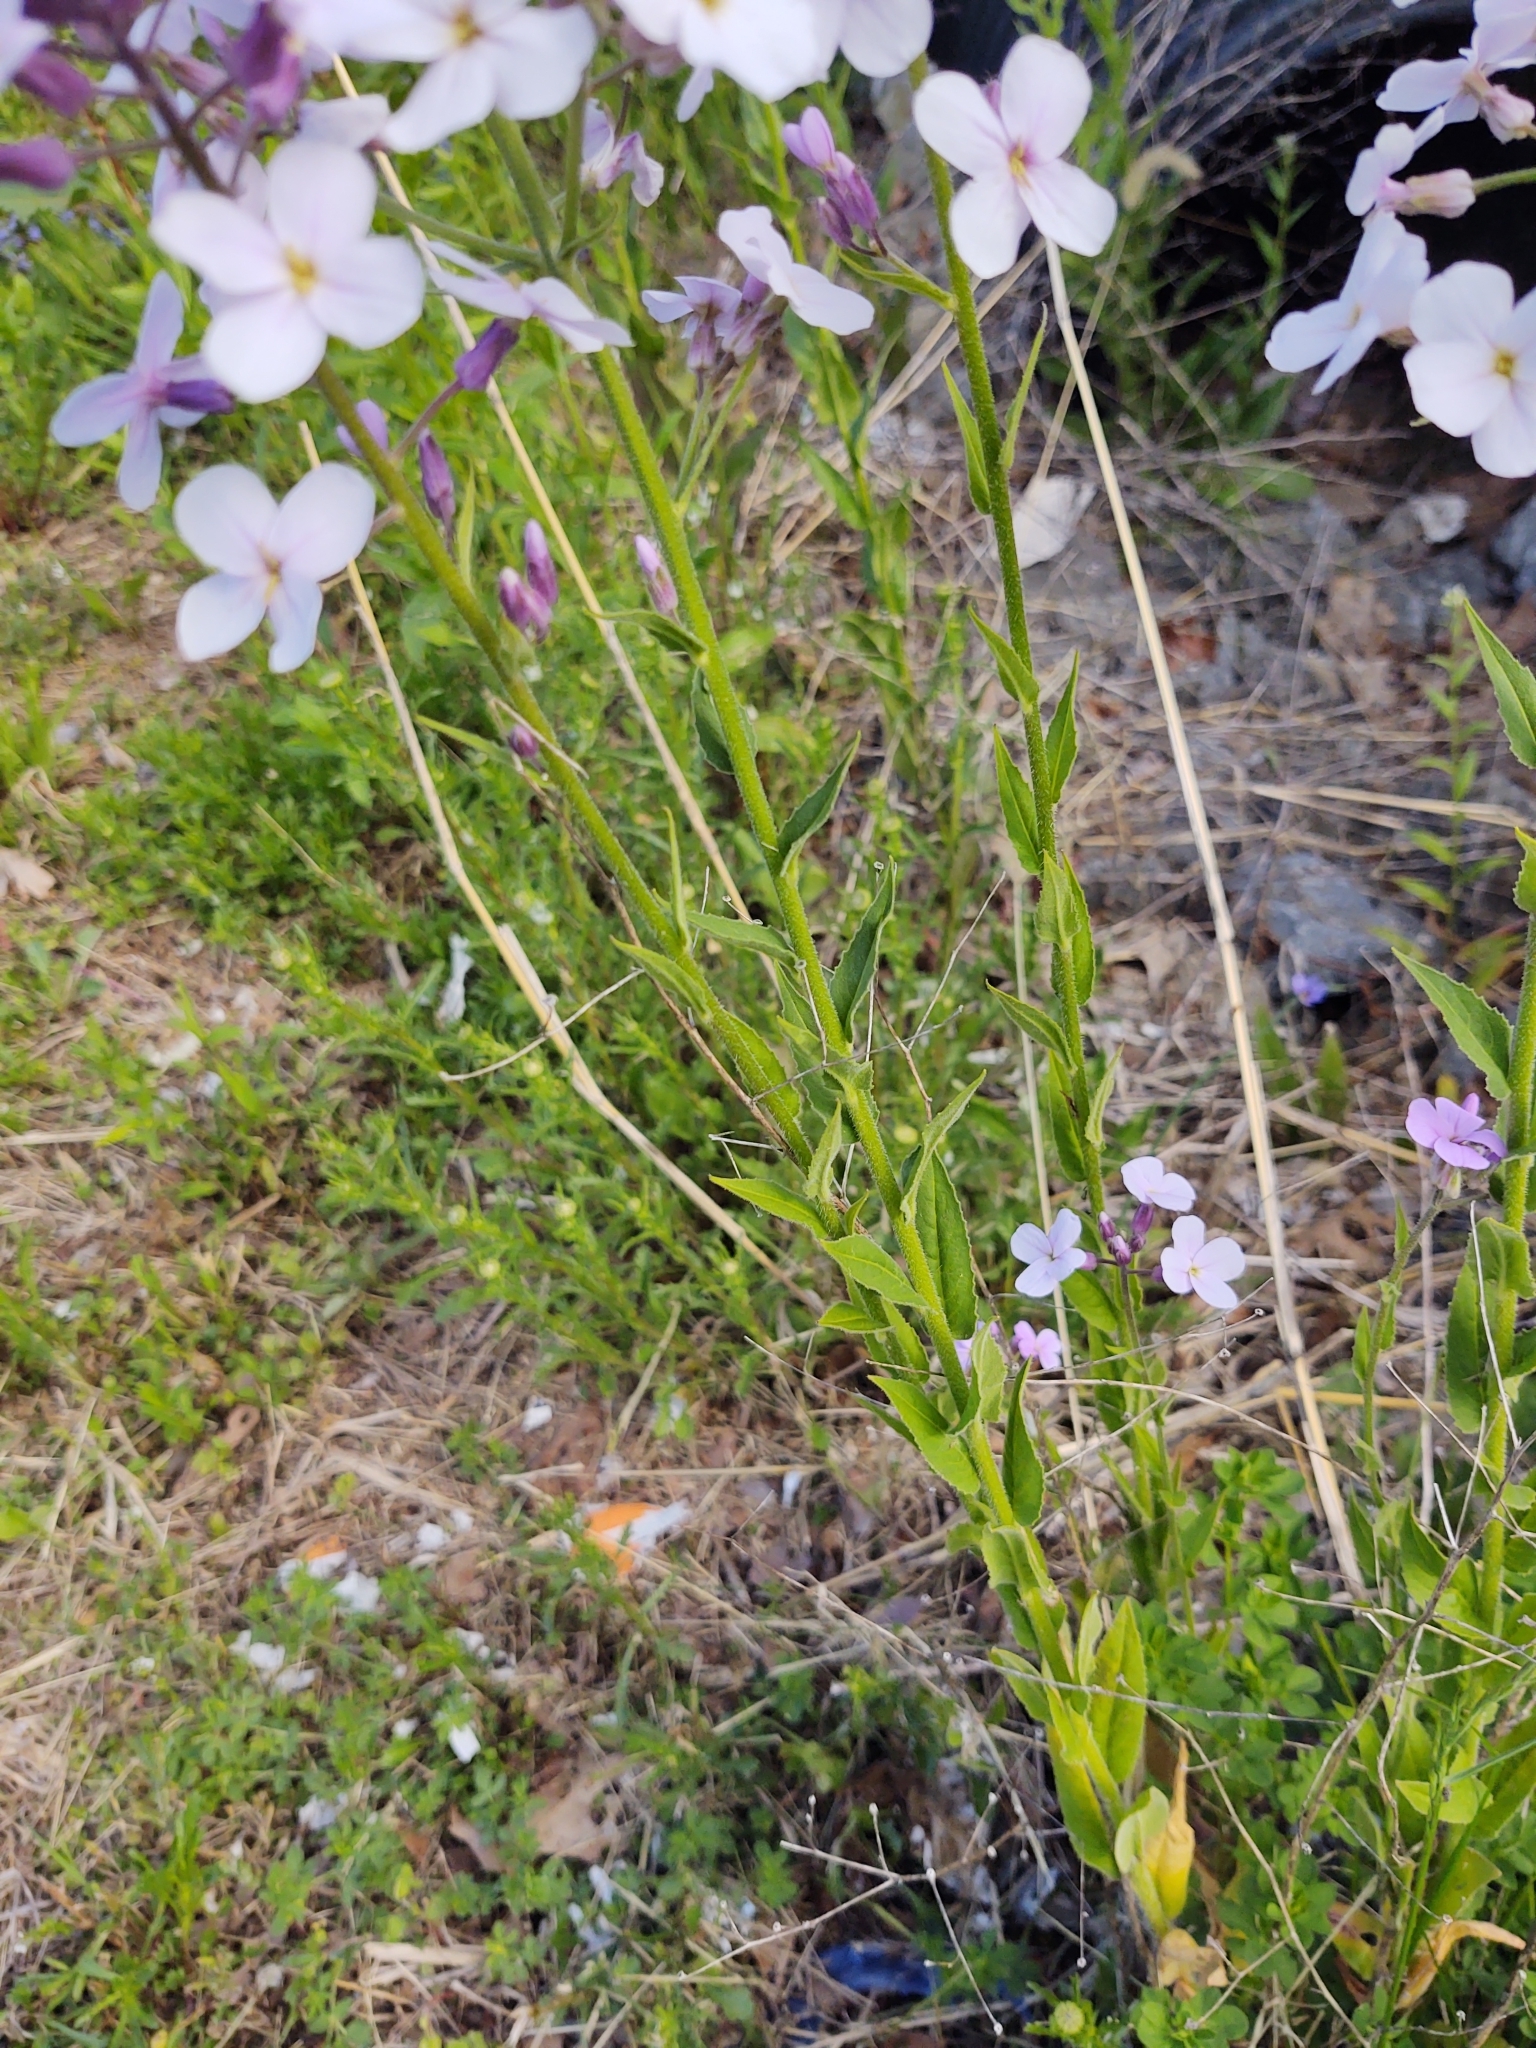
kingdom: Plantae
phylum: Tracheophyta
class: Magnoliopsida
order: Brassicales
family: Brassicaceae
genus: Hesperis
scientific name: Hesperis matronalis
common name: Dame's-violet
